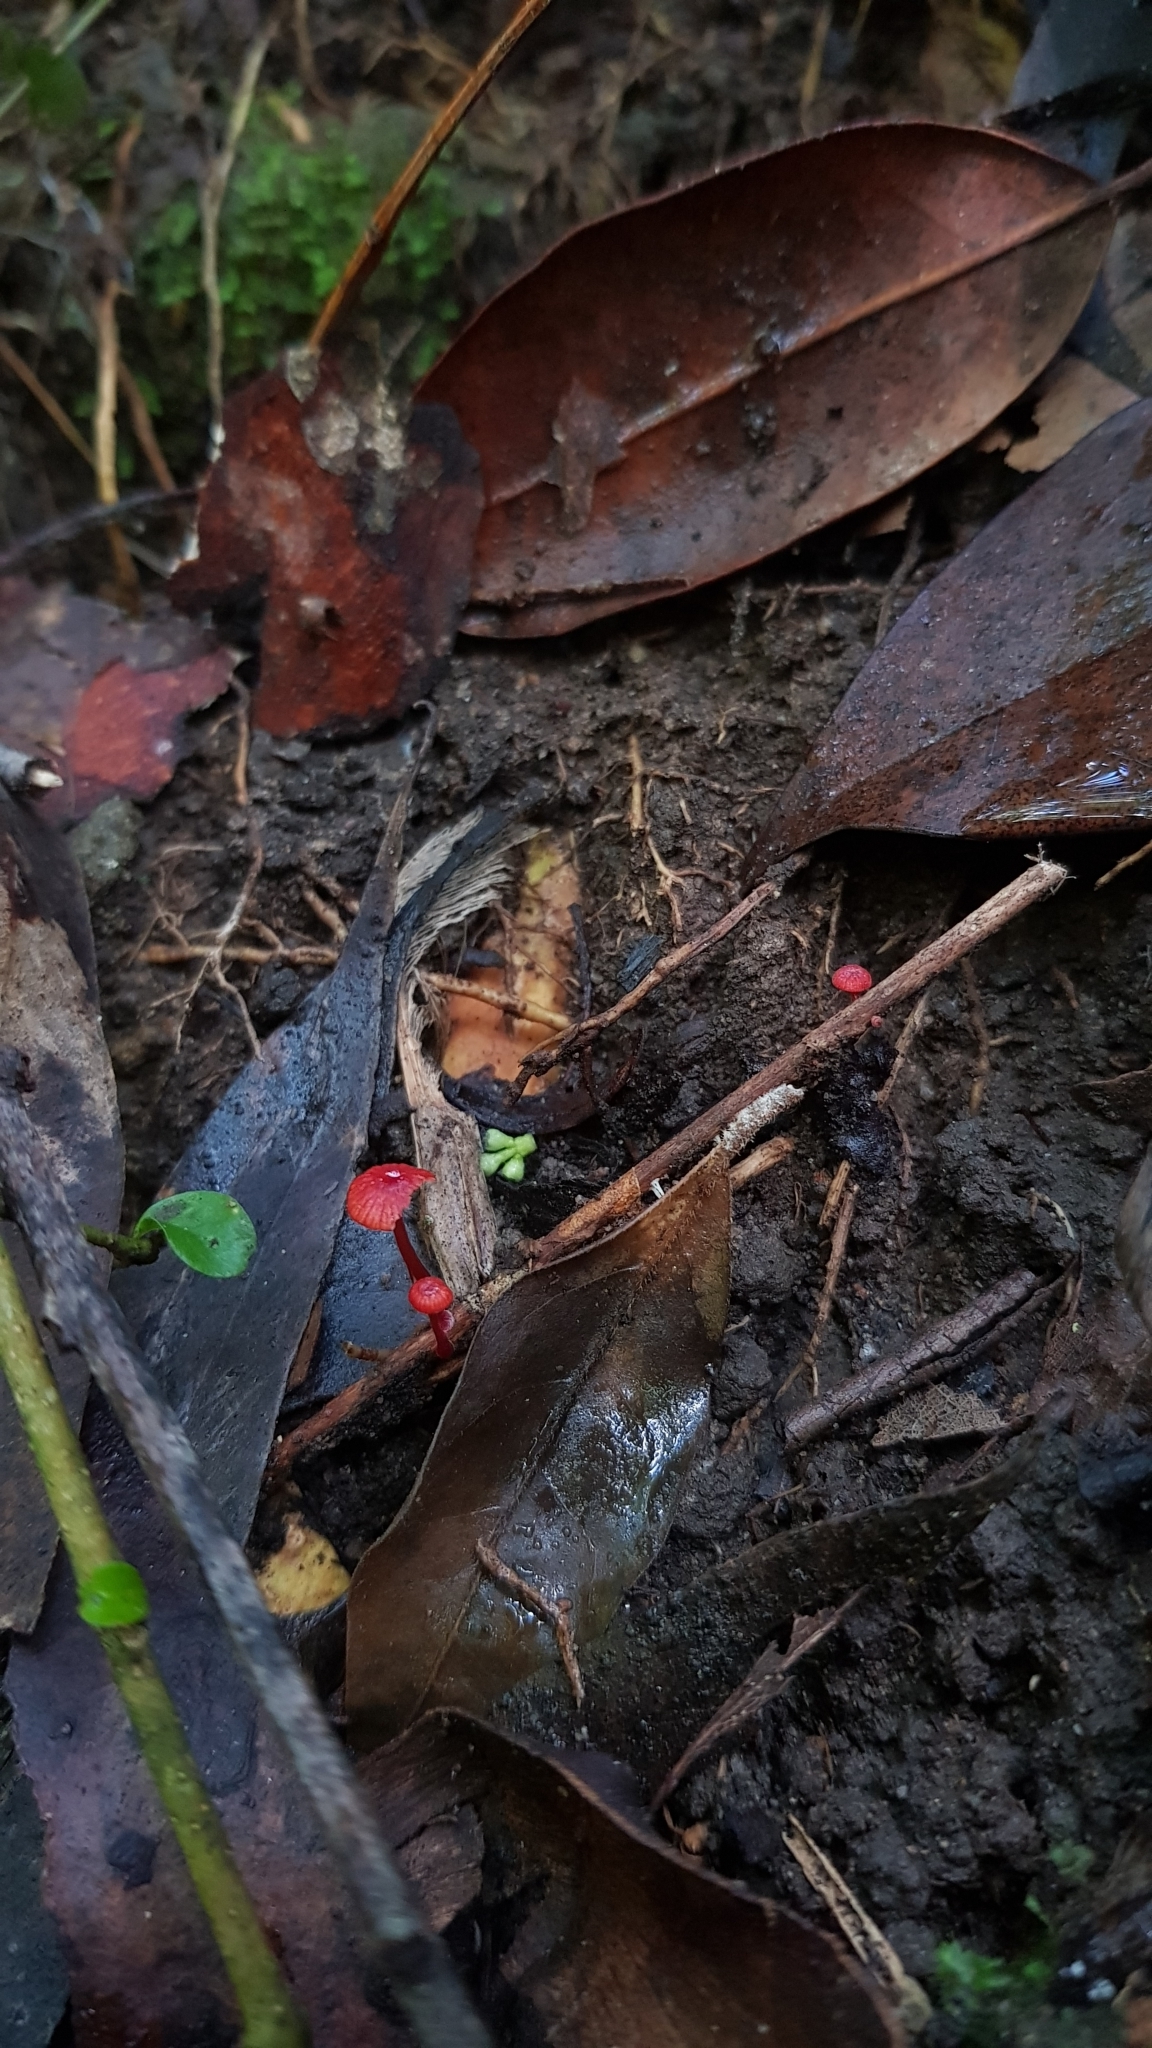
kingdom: Fungi
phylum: Basidiomycota
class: Agaricomycetes
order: Agaricales
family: Mycenaceae
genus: Cruentomycena
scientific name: Cruentomycena viscidocruenta
